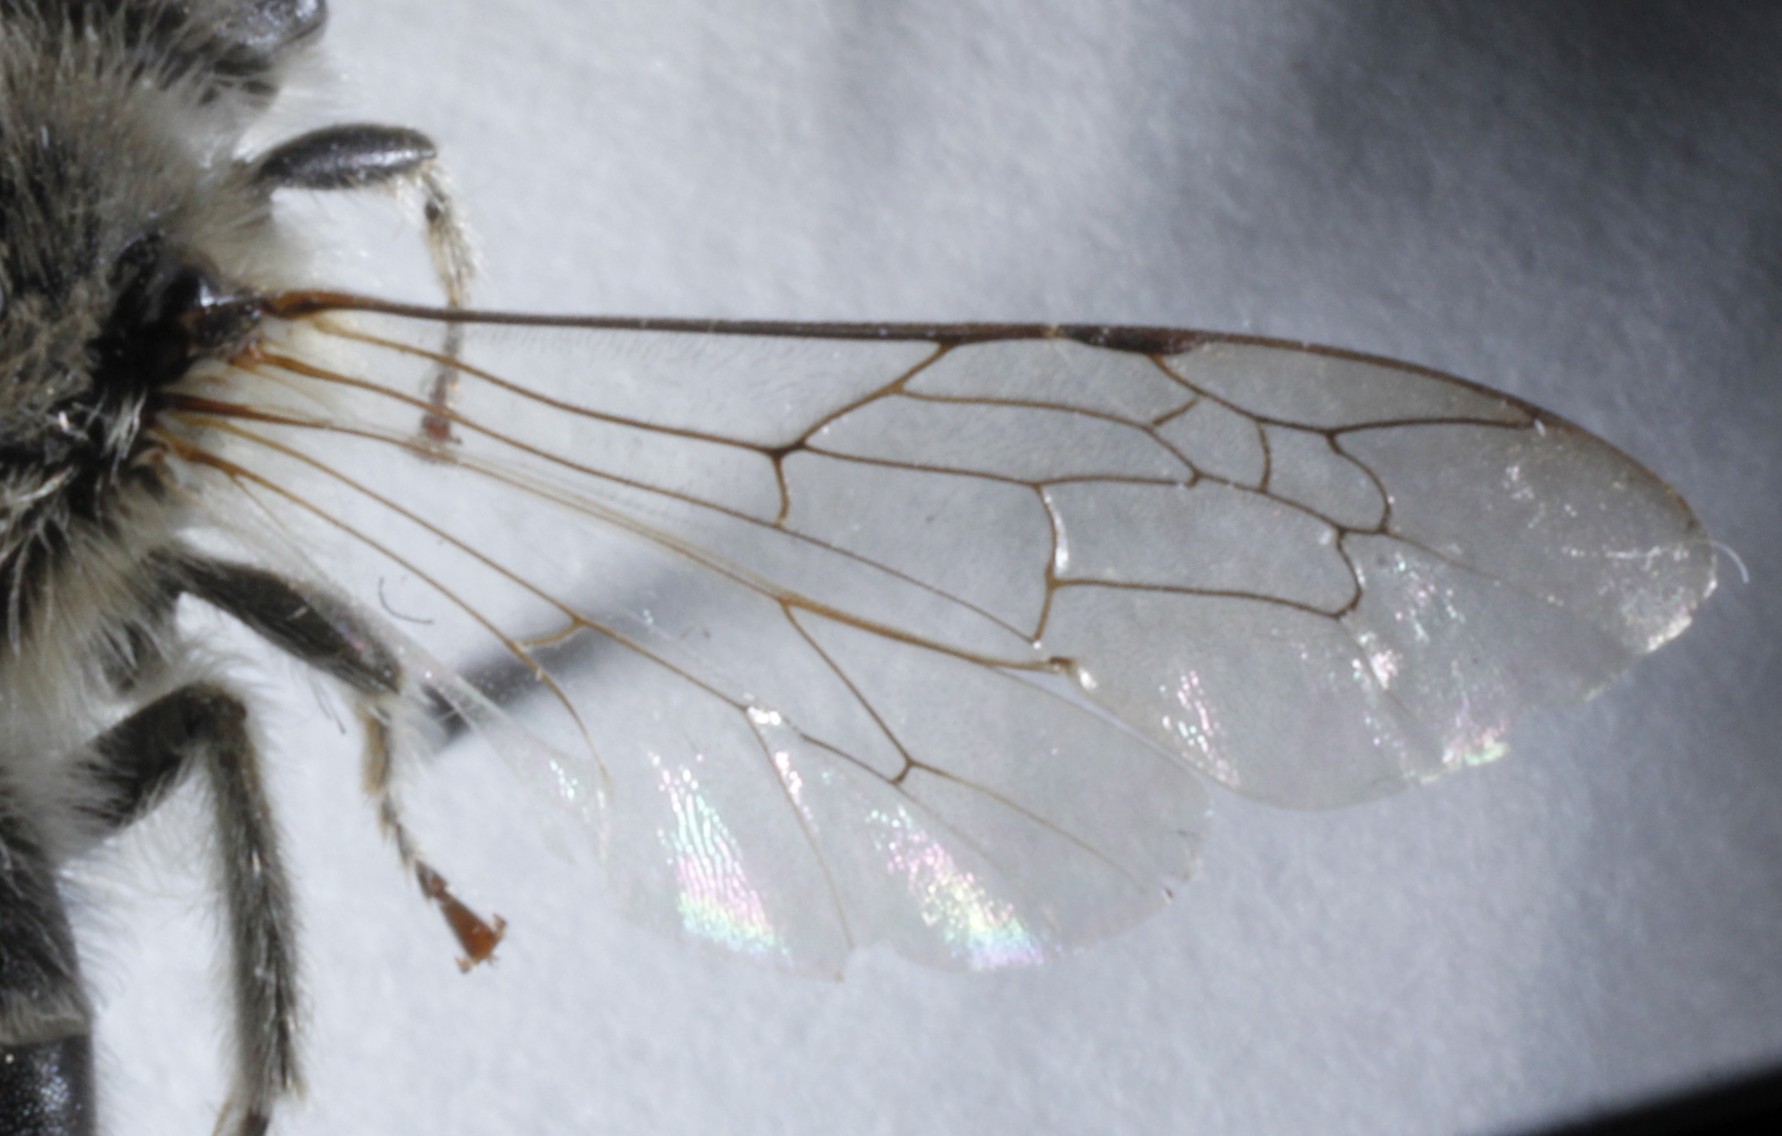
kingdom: Animalia
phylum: Arthropoda
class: Insecta
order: Hymenoptera
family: Colletidae
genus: Colletes
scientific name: Colletes inaequalis
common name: Unequal cellophane bee
